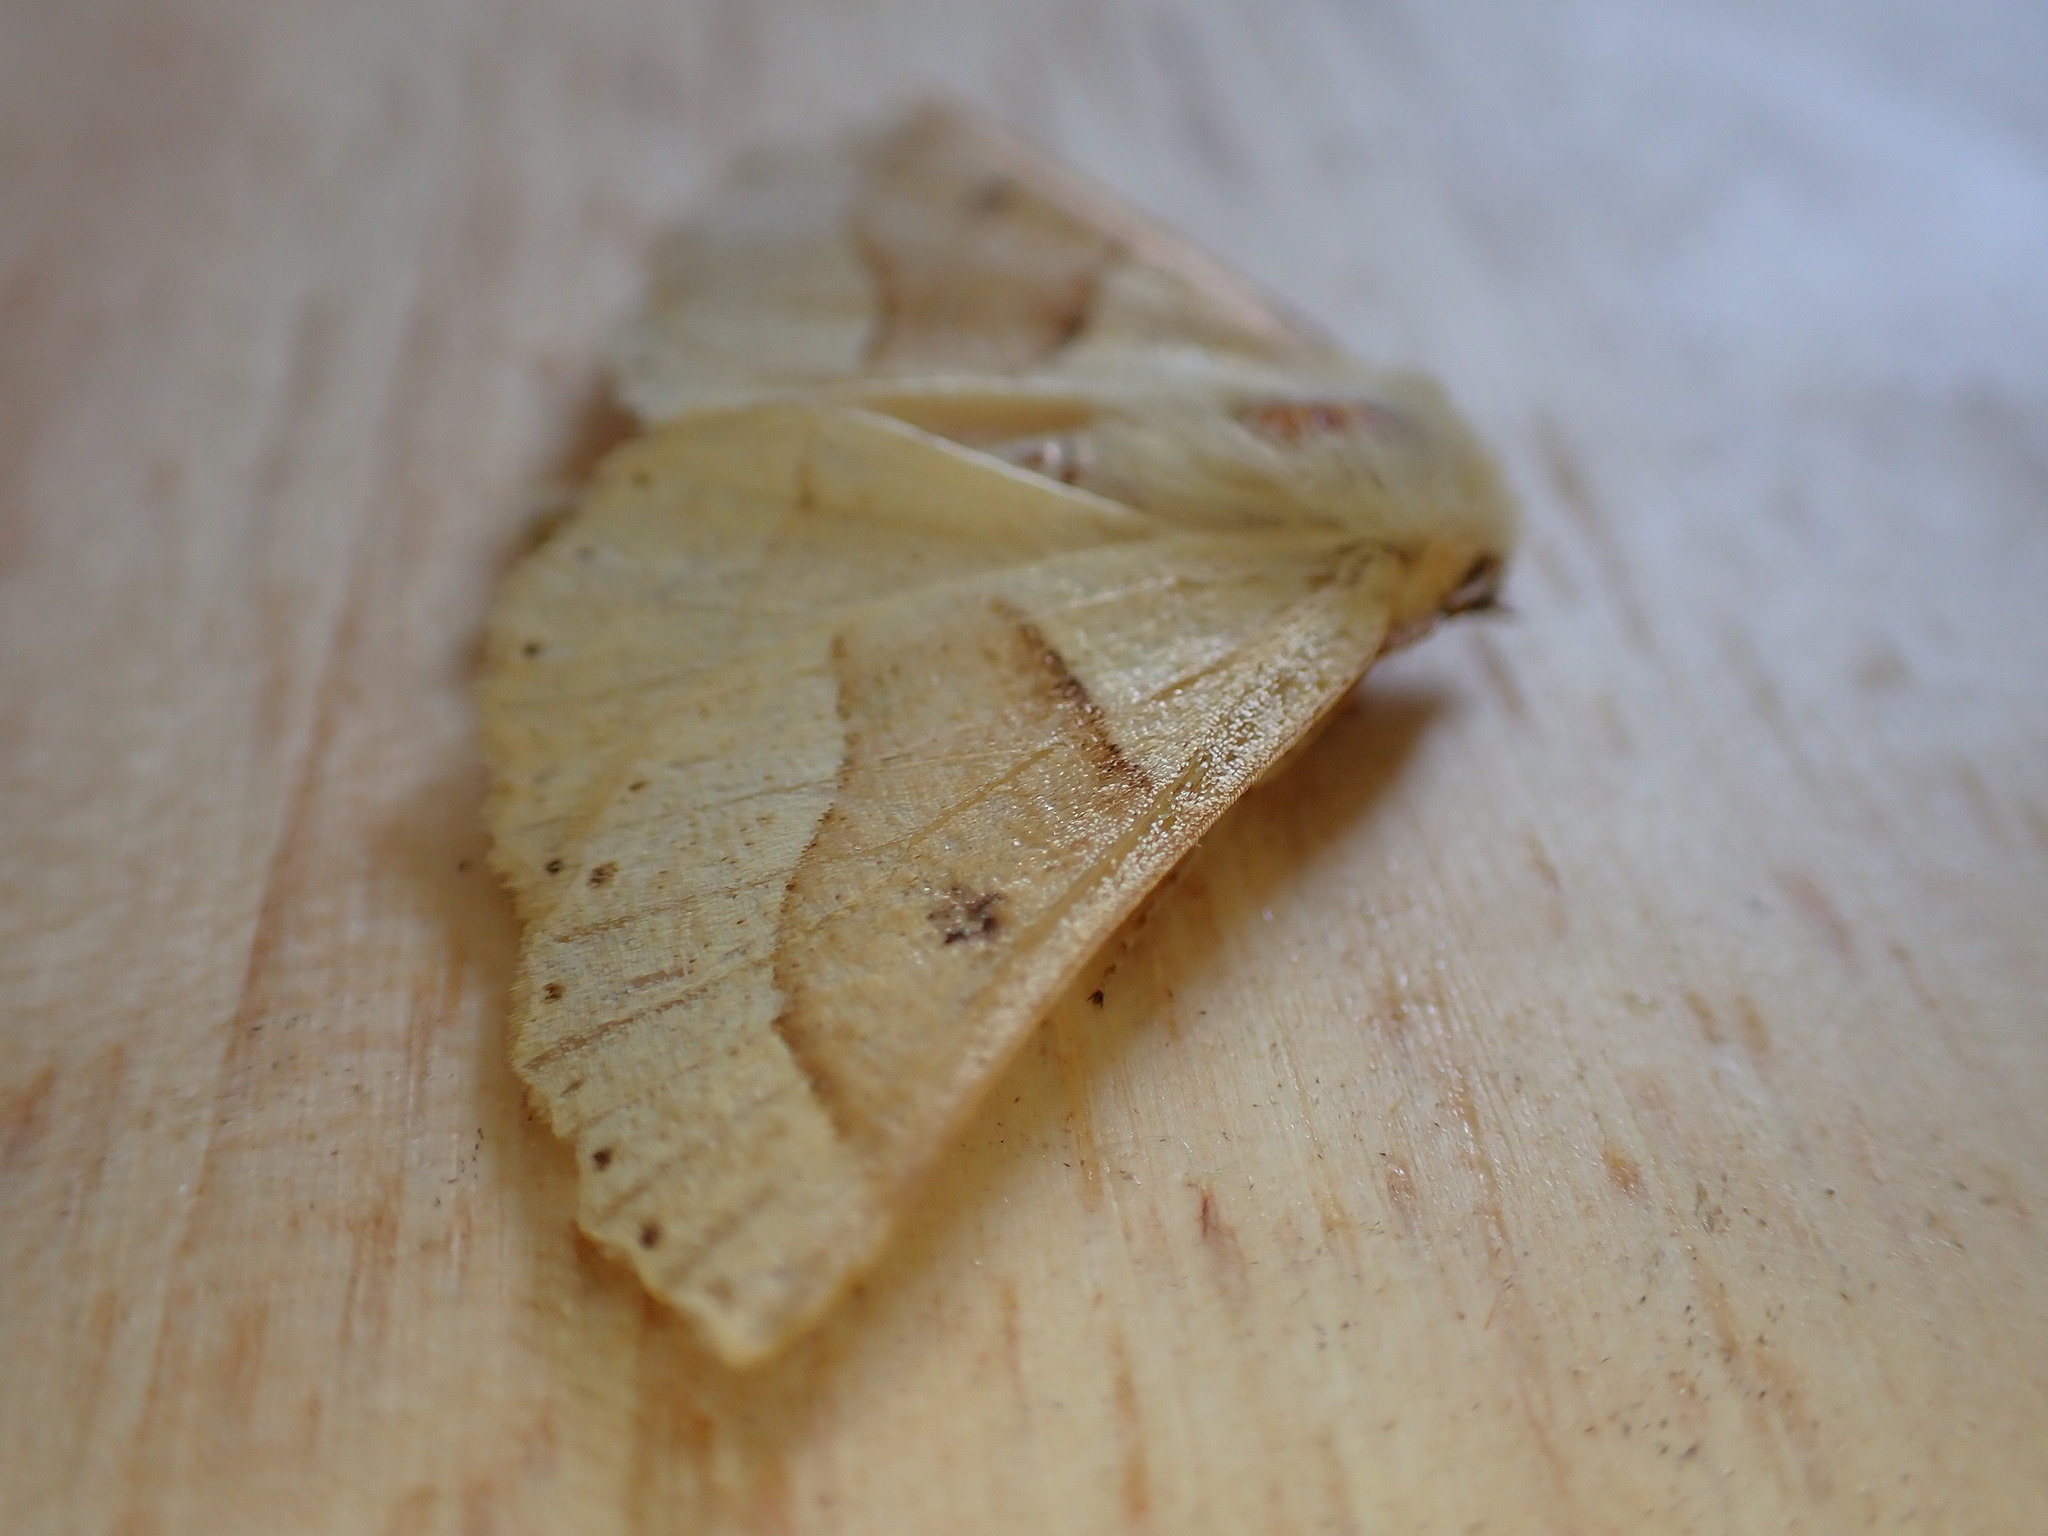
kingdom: Animalia
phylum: Arthropoda
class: Insecta
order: Lepidoptera
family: Geometridae
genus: Crocallis
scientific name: Crocallis elinguaria
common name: Scalloped oak
